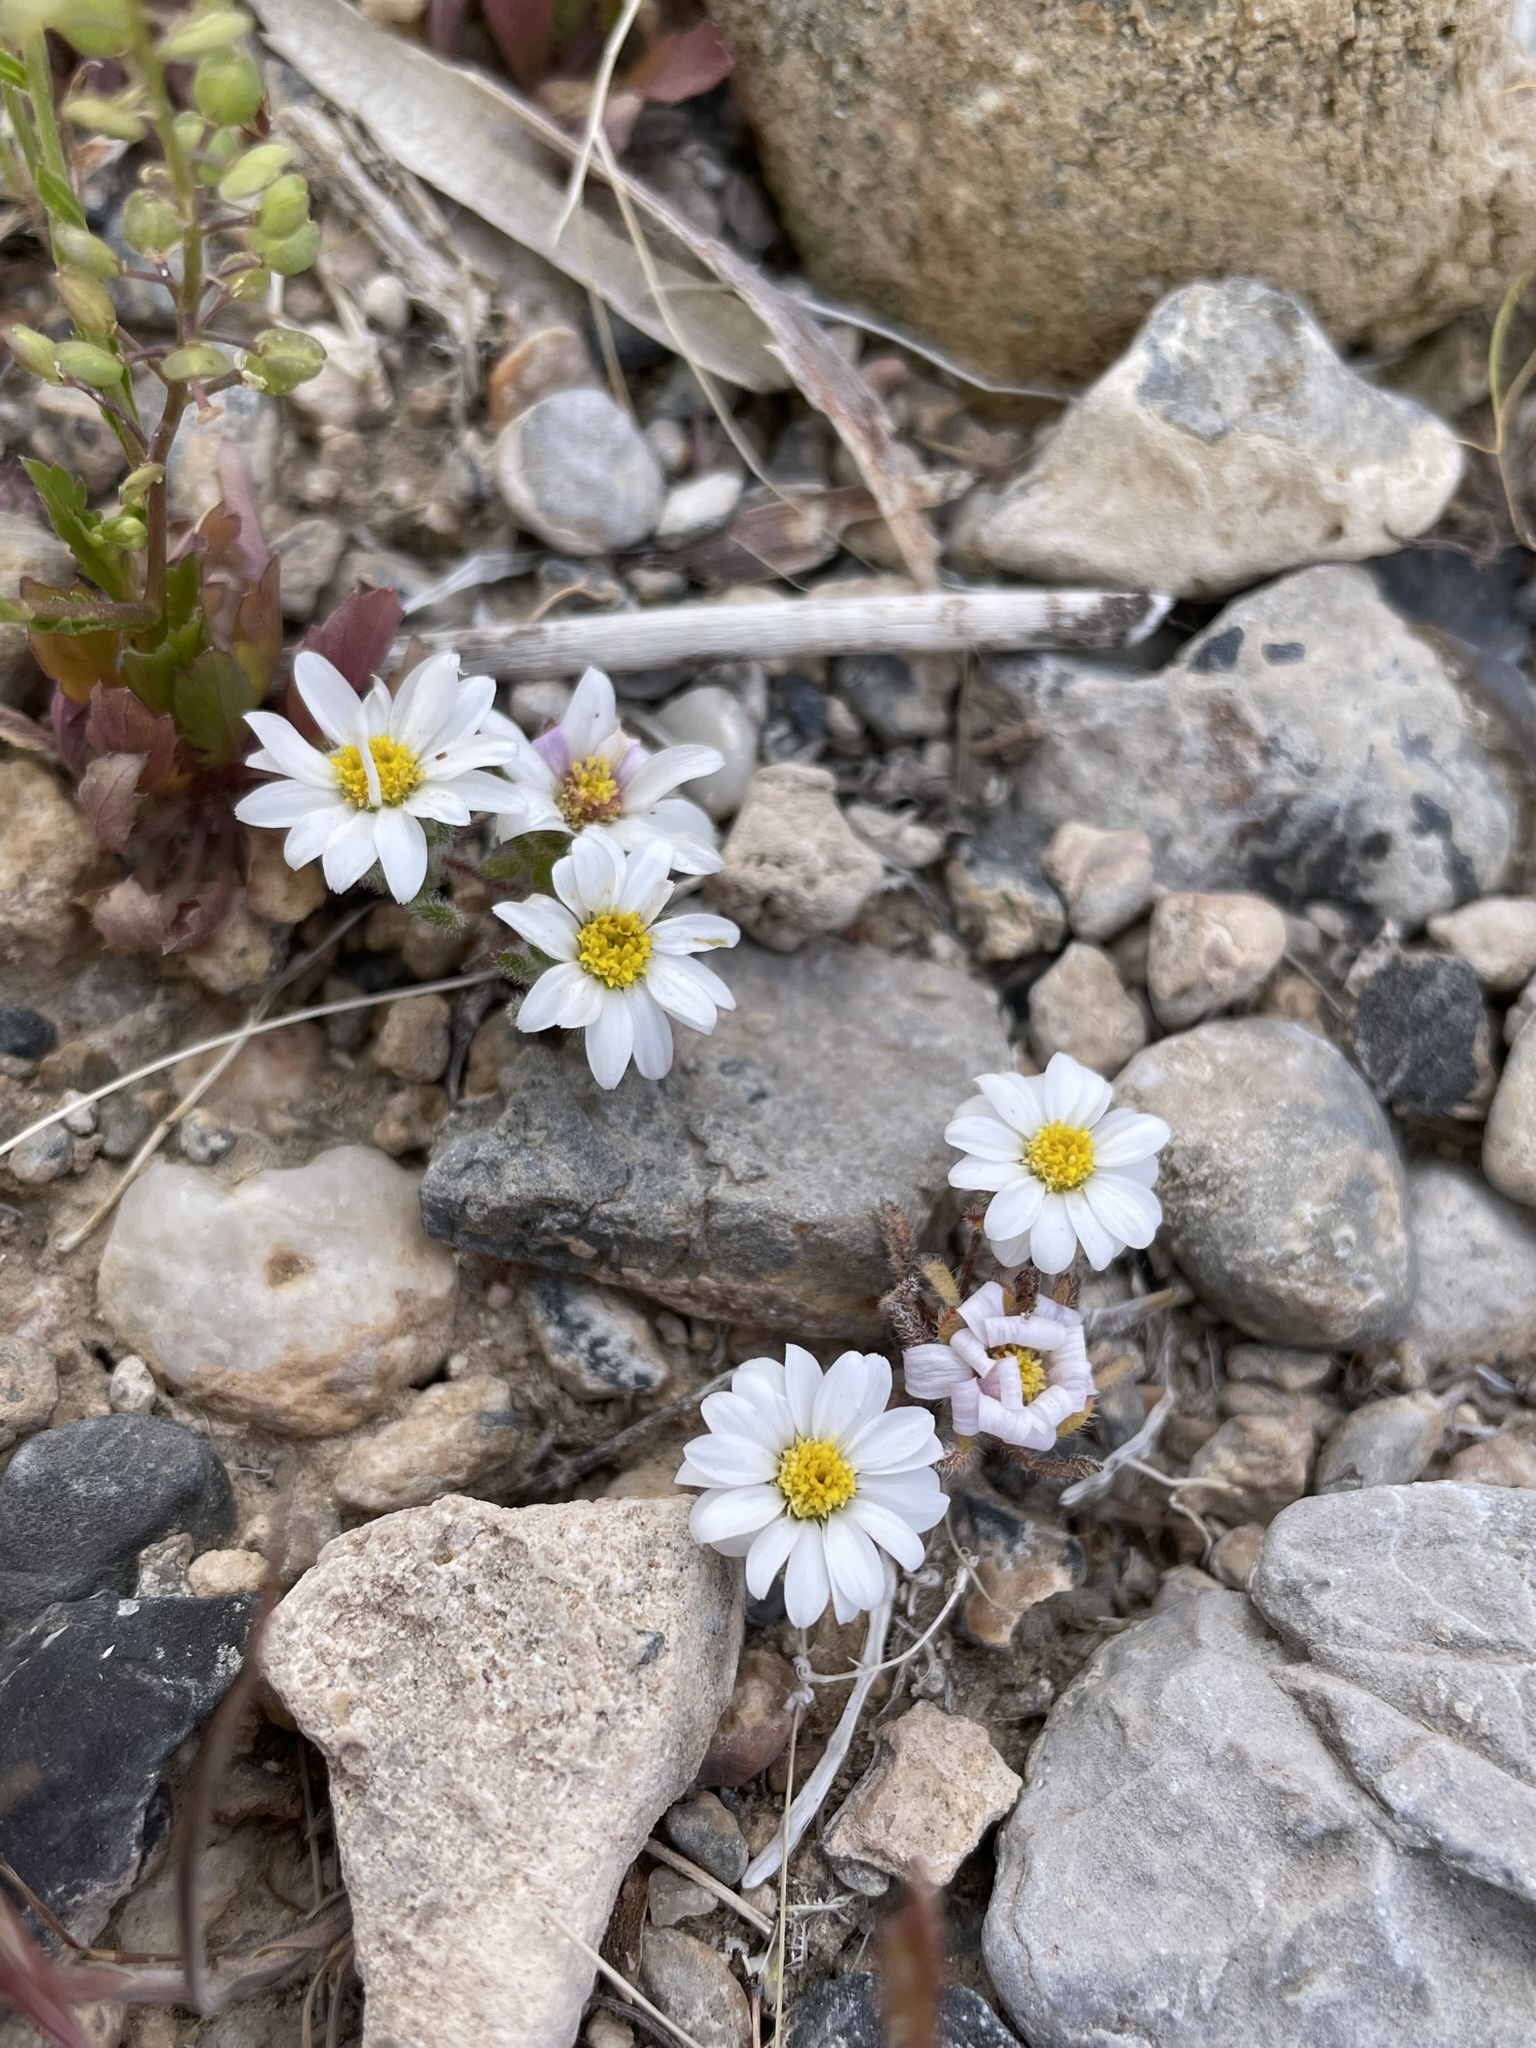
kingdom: Plantae
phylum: Tracheophyta
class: Magnoliopsida
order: Asterales
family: Asteraceae
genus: Monoptilon
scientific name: Monoptilon bellioides
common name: Bristly desertstar
